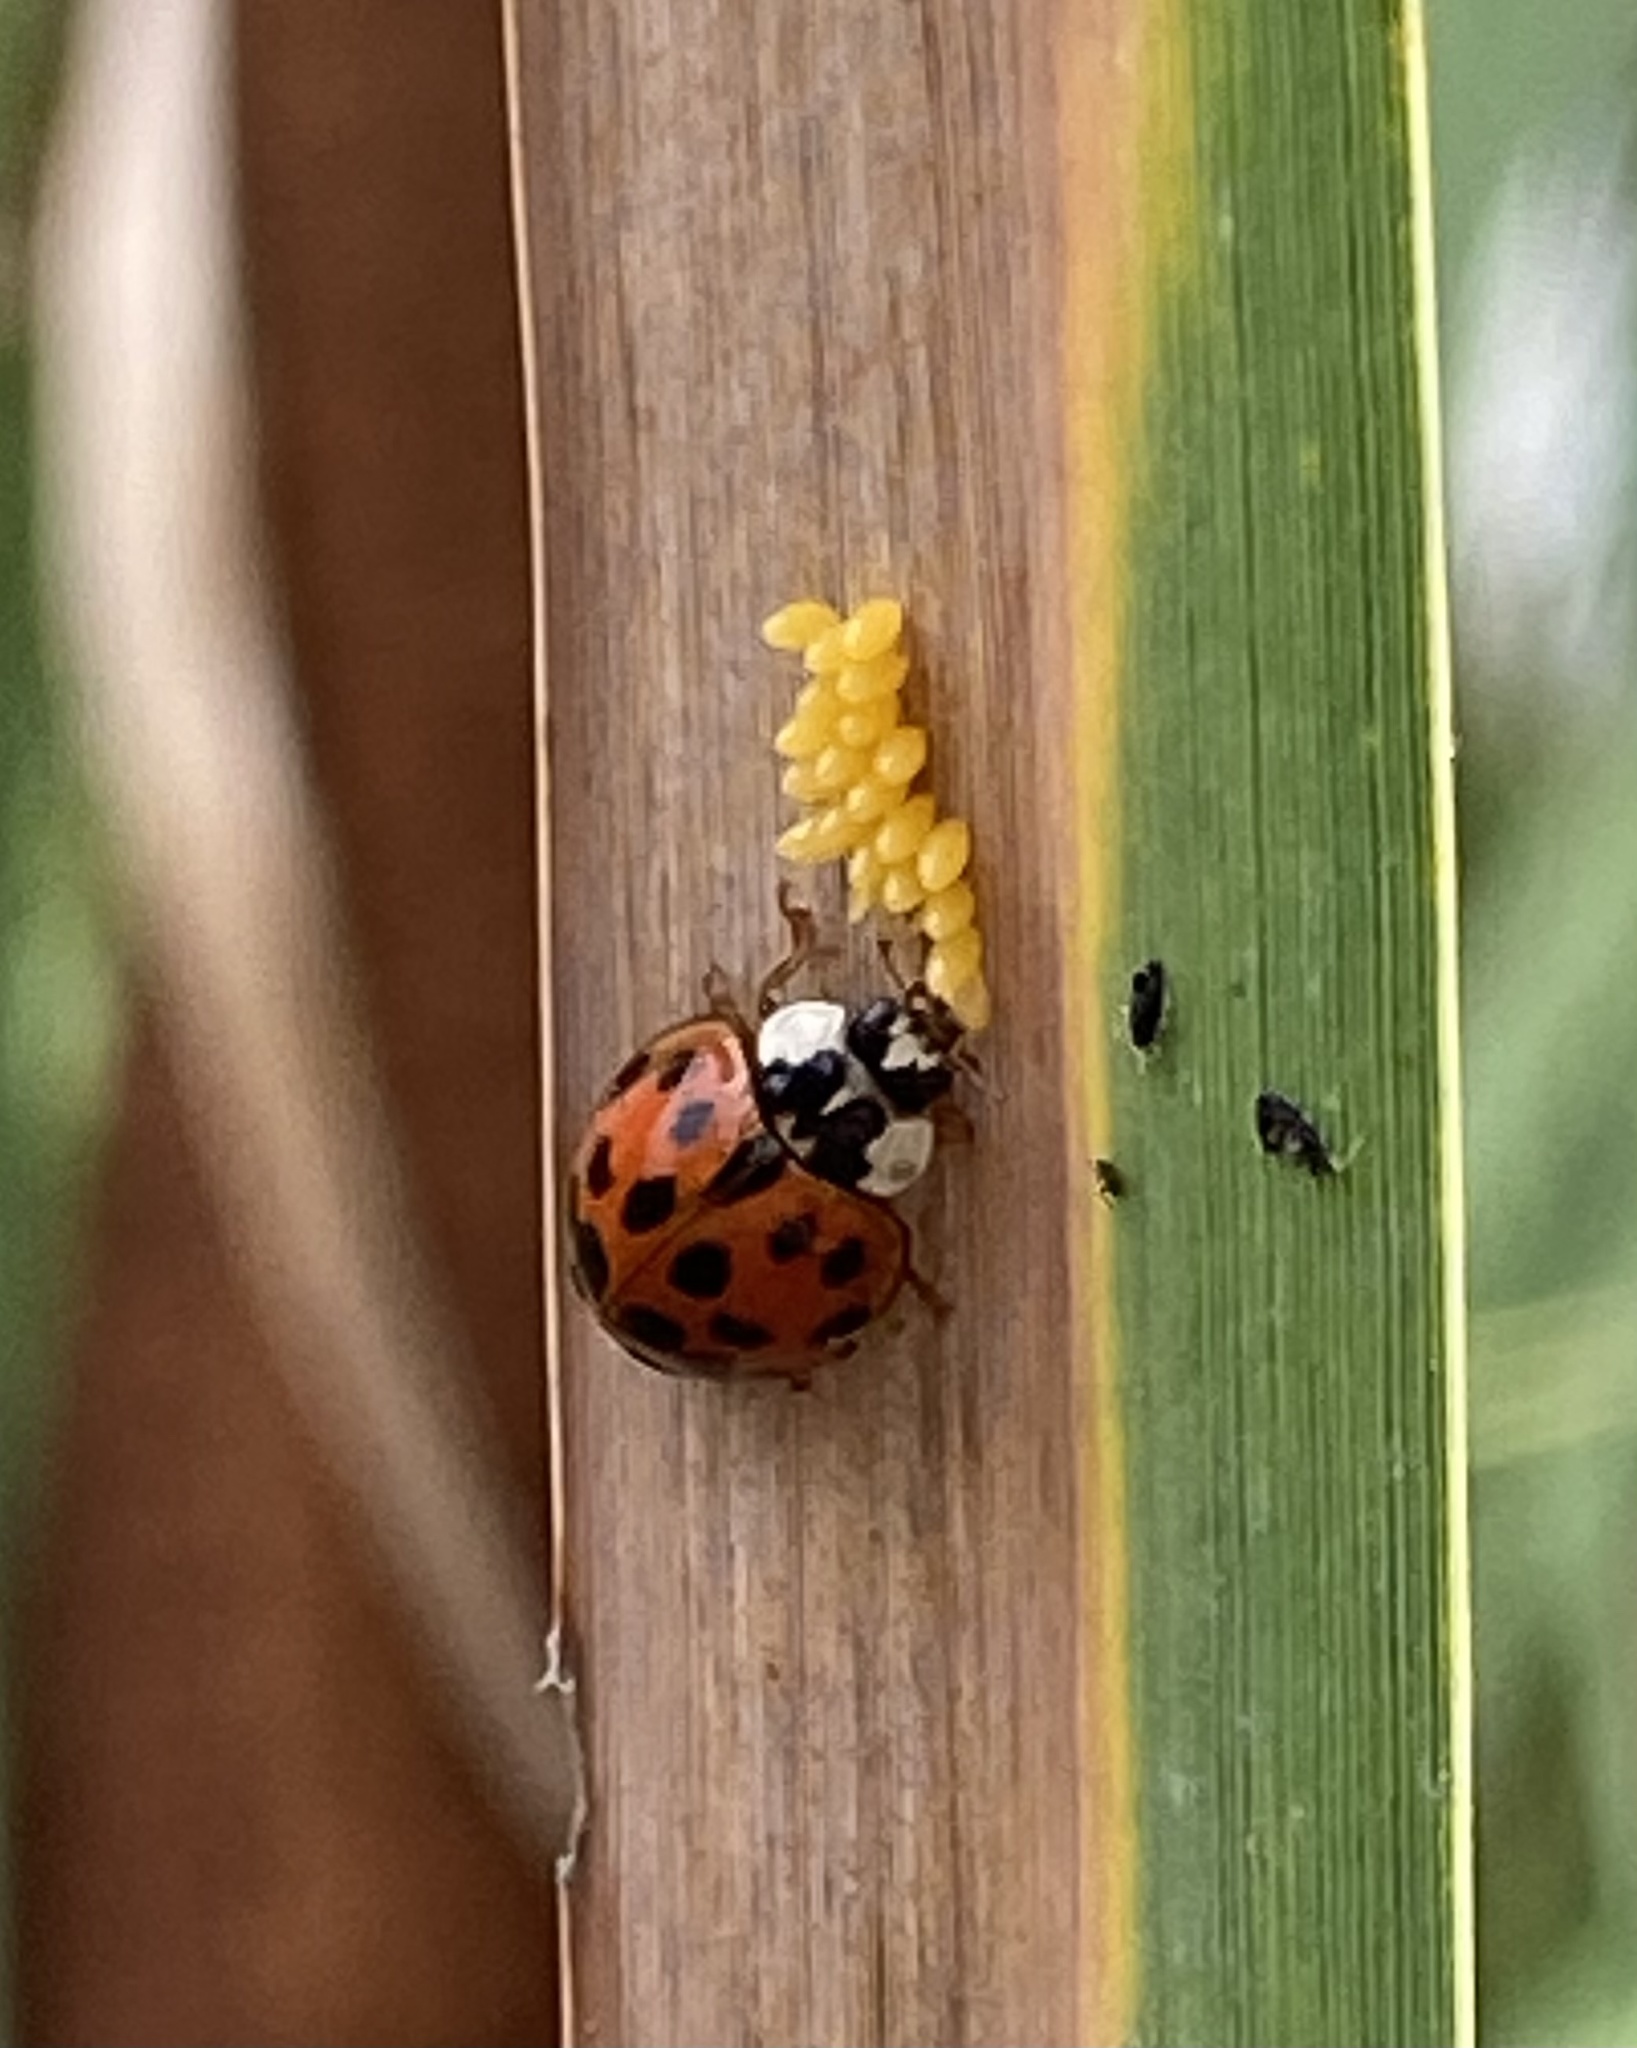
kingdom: Animalia
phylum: Arthropoda
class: Insecta
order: Coleoptera
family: Coccinellidae
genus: Harmonia
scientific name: Harmonia axyridis
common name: Harlequin ladybird
